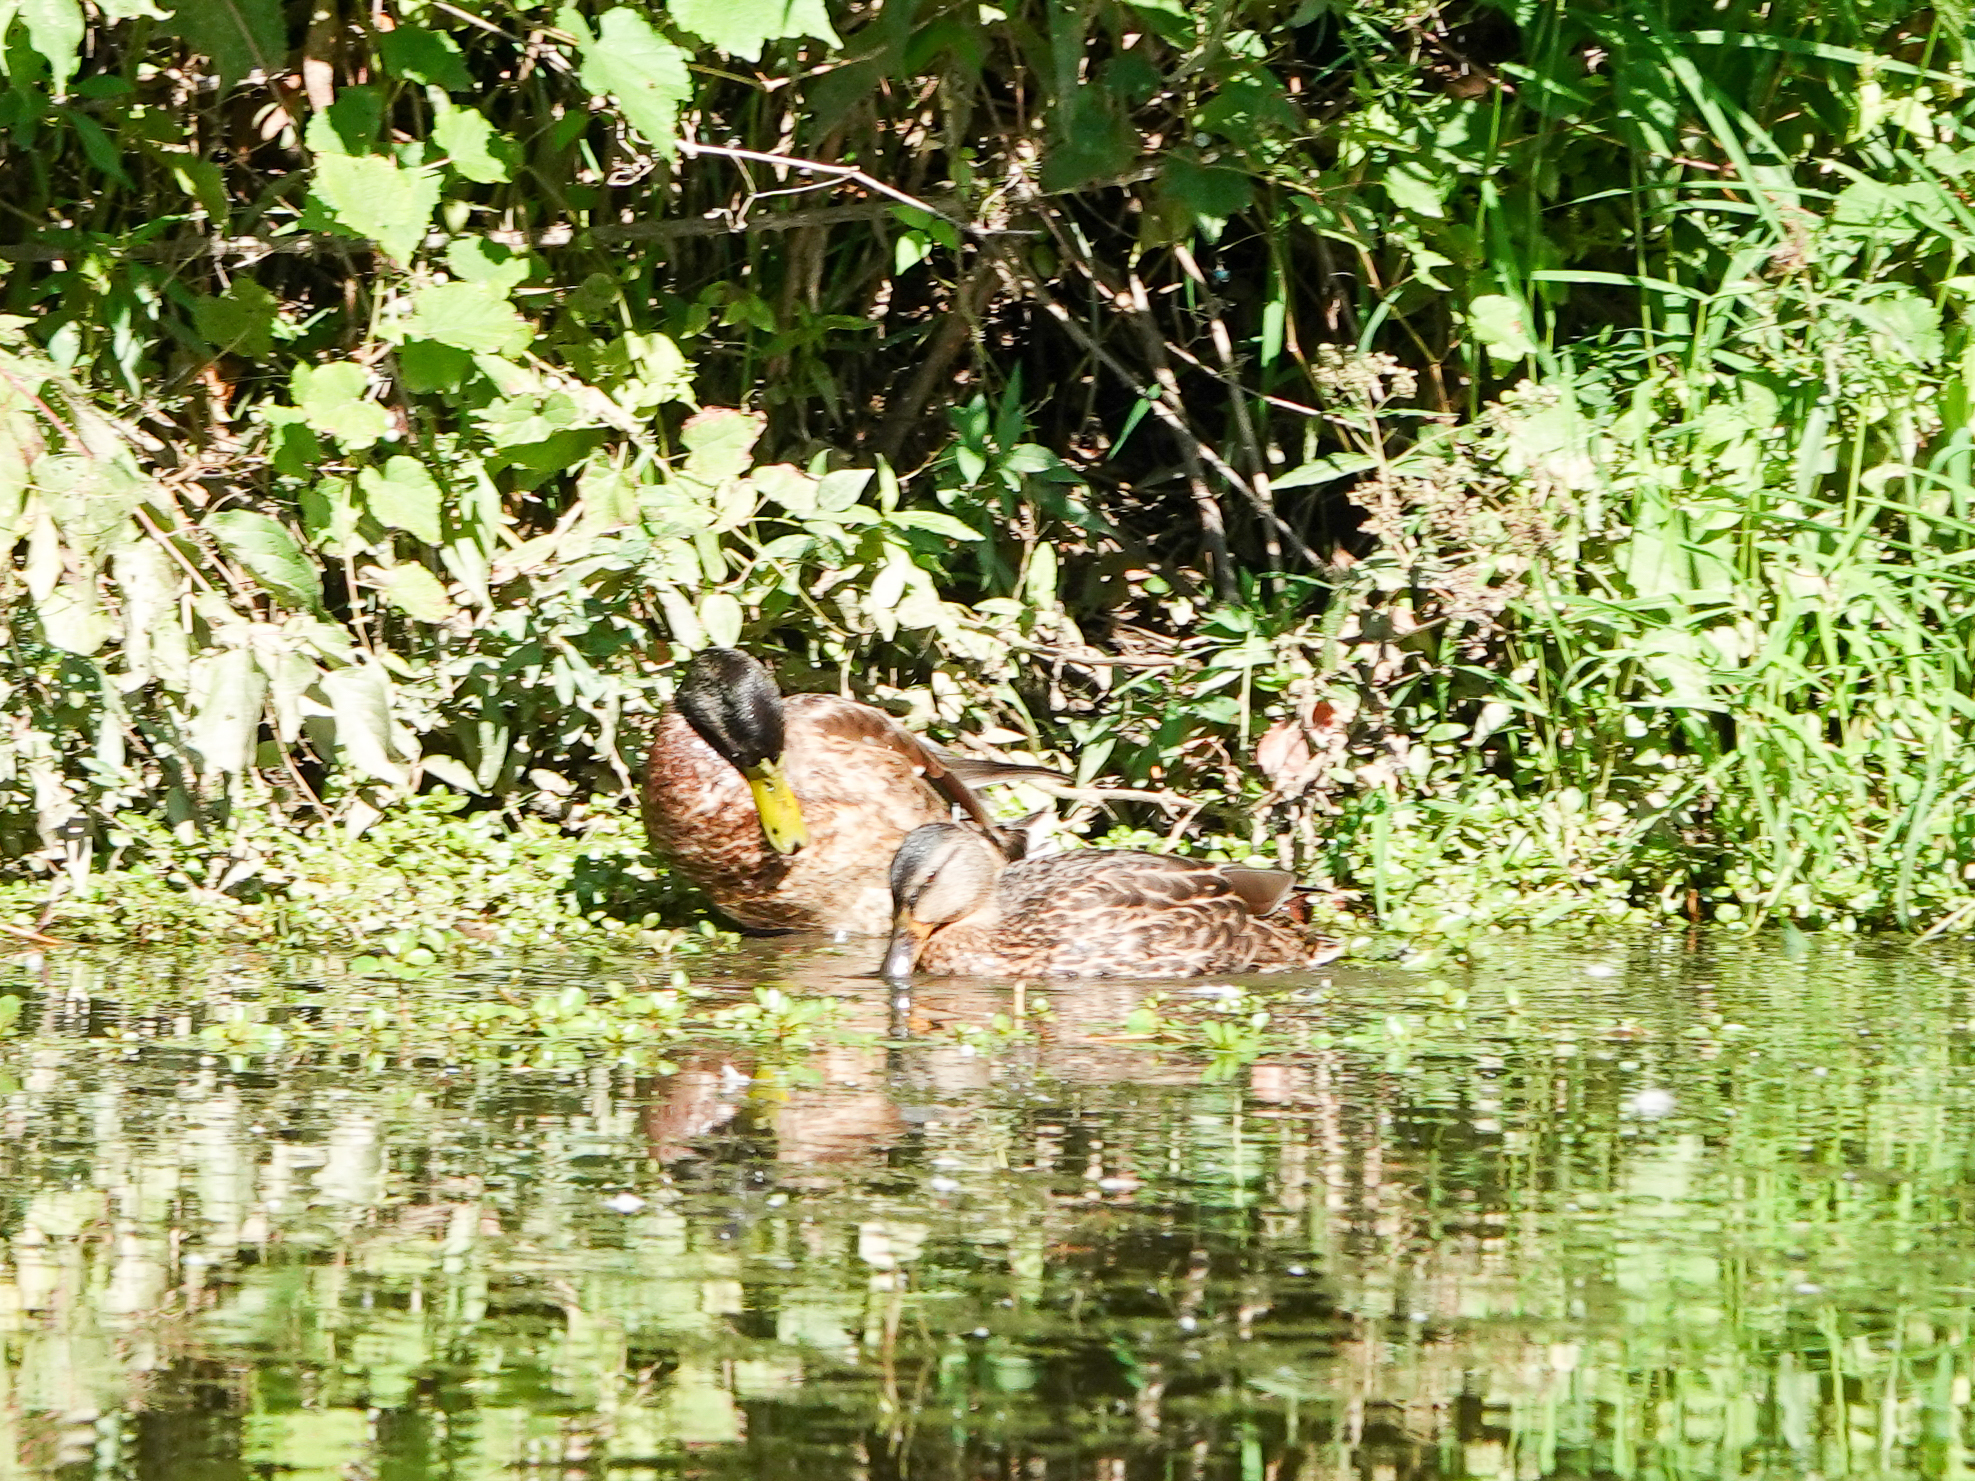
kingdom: Animalia
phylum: Chordata
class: Aves
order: Anseriformes
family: Anatidae
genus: Anas
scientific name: Anas platyrhynchos
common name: Mallard
